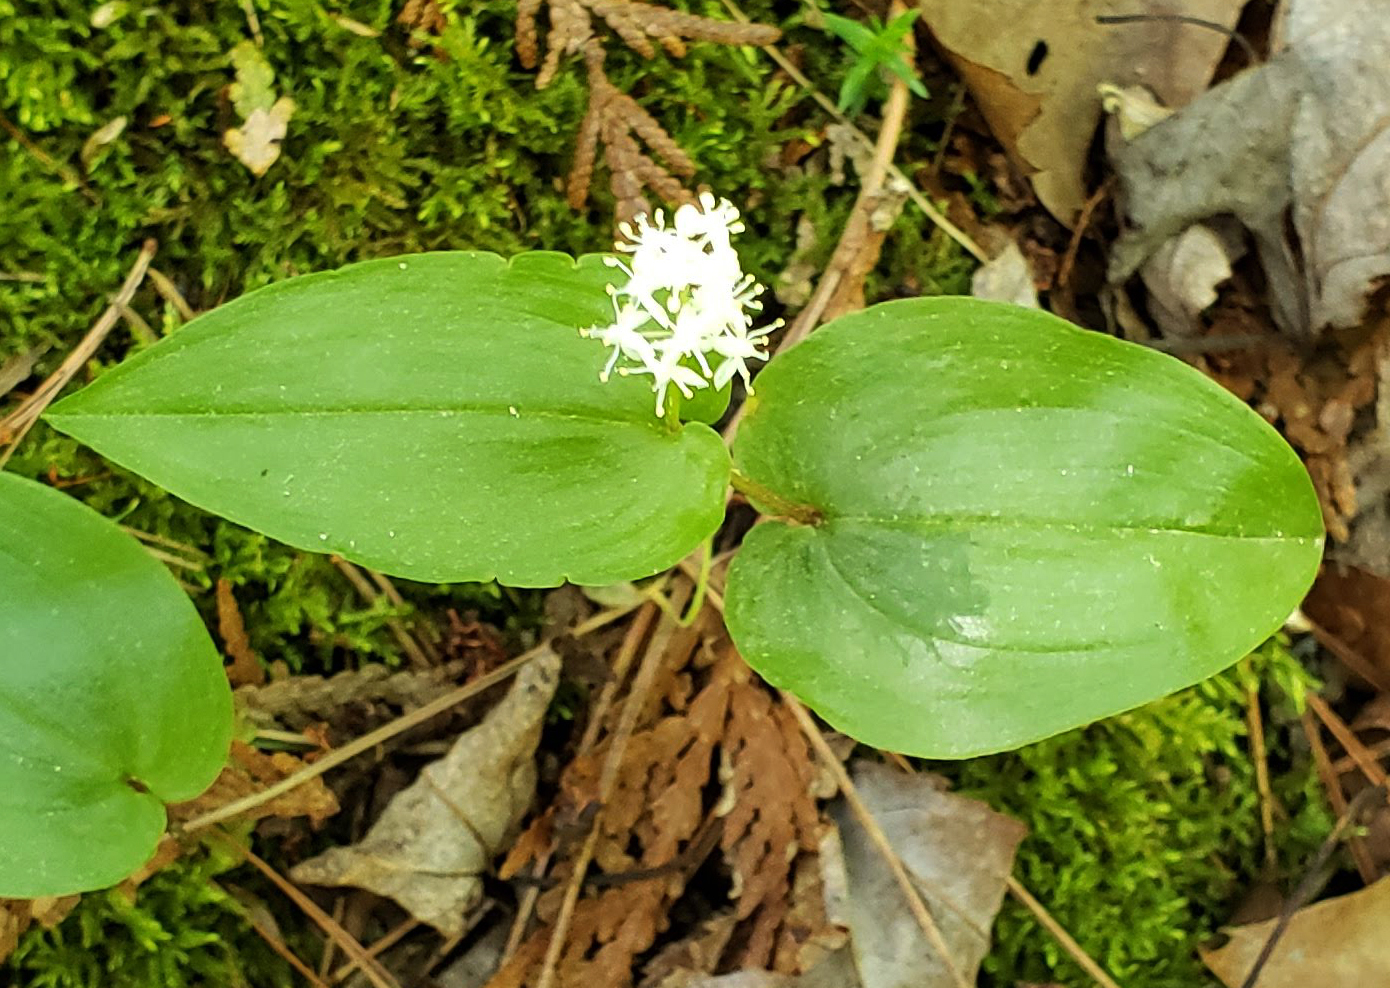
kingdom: Plantae
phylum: Tracheophyta
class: Liliopsida
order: Asparagales
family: Asparagaceae
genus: Maianthemum
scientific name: Maianthemum canadense
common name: False lily-of-the-valley
